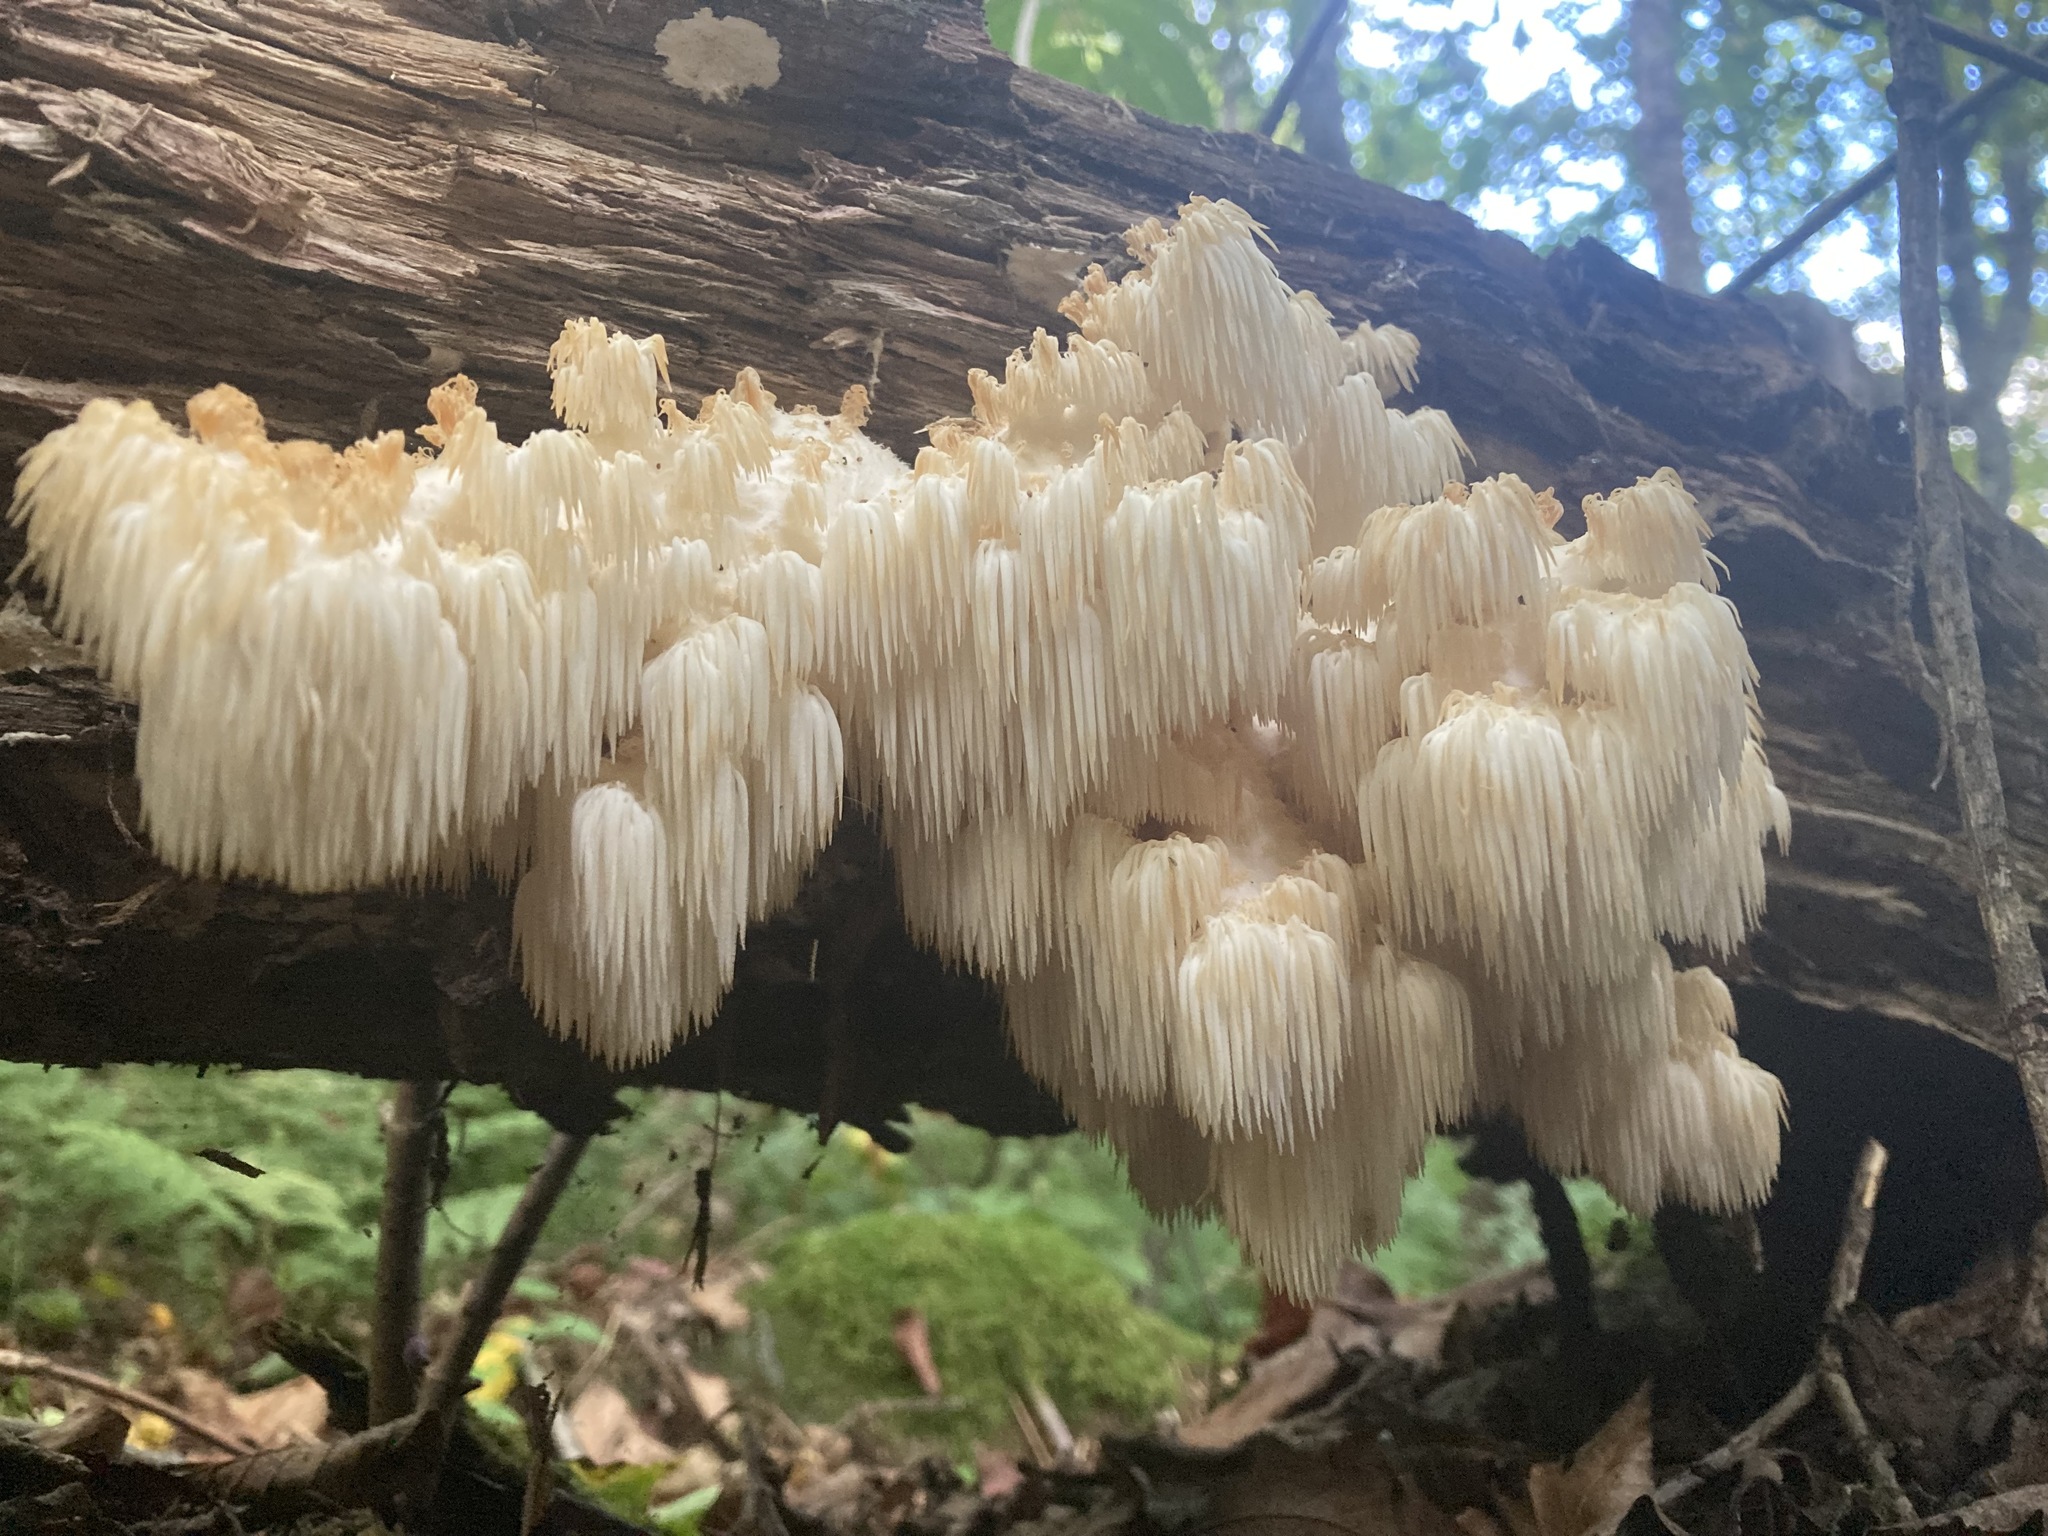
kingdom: Fungi
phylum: Basidiomycota
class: Agaricomycetes
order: Russulales
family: Hericiaceae
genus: Hericium
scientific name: Hericium americanum
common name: Bear's head tooth
